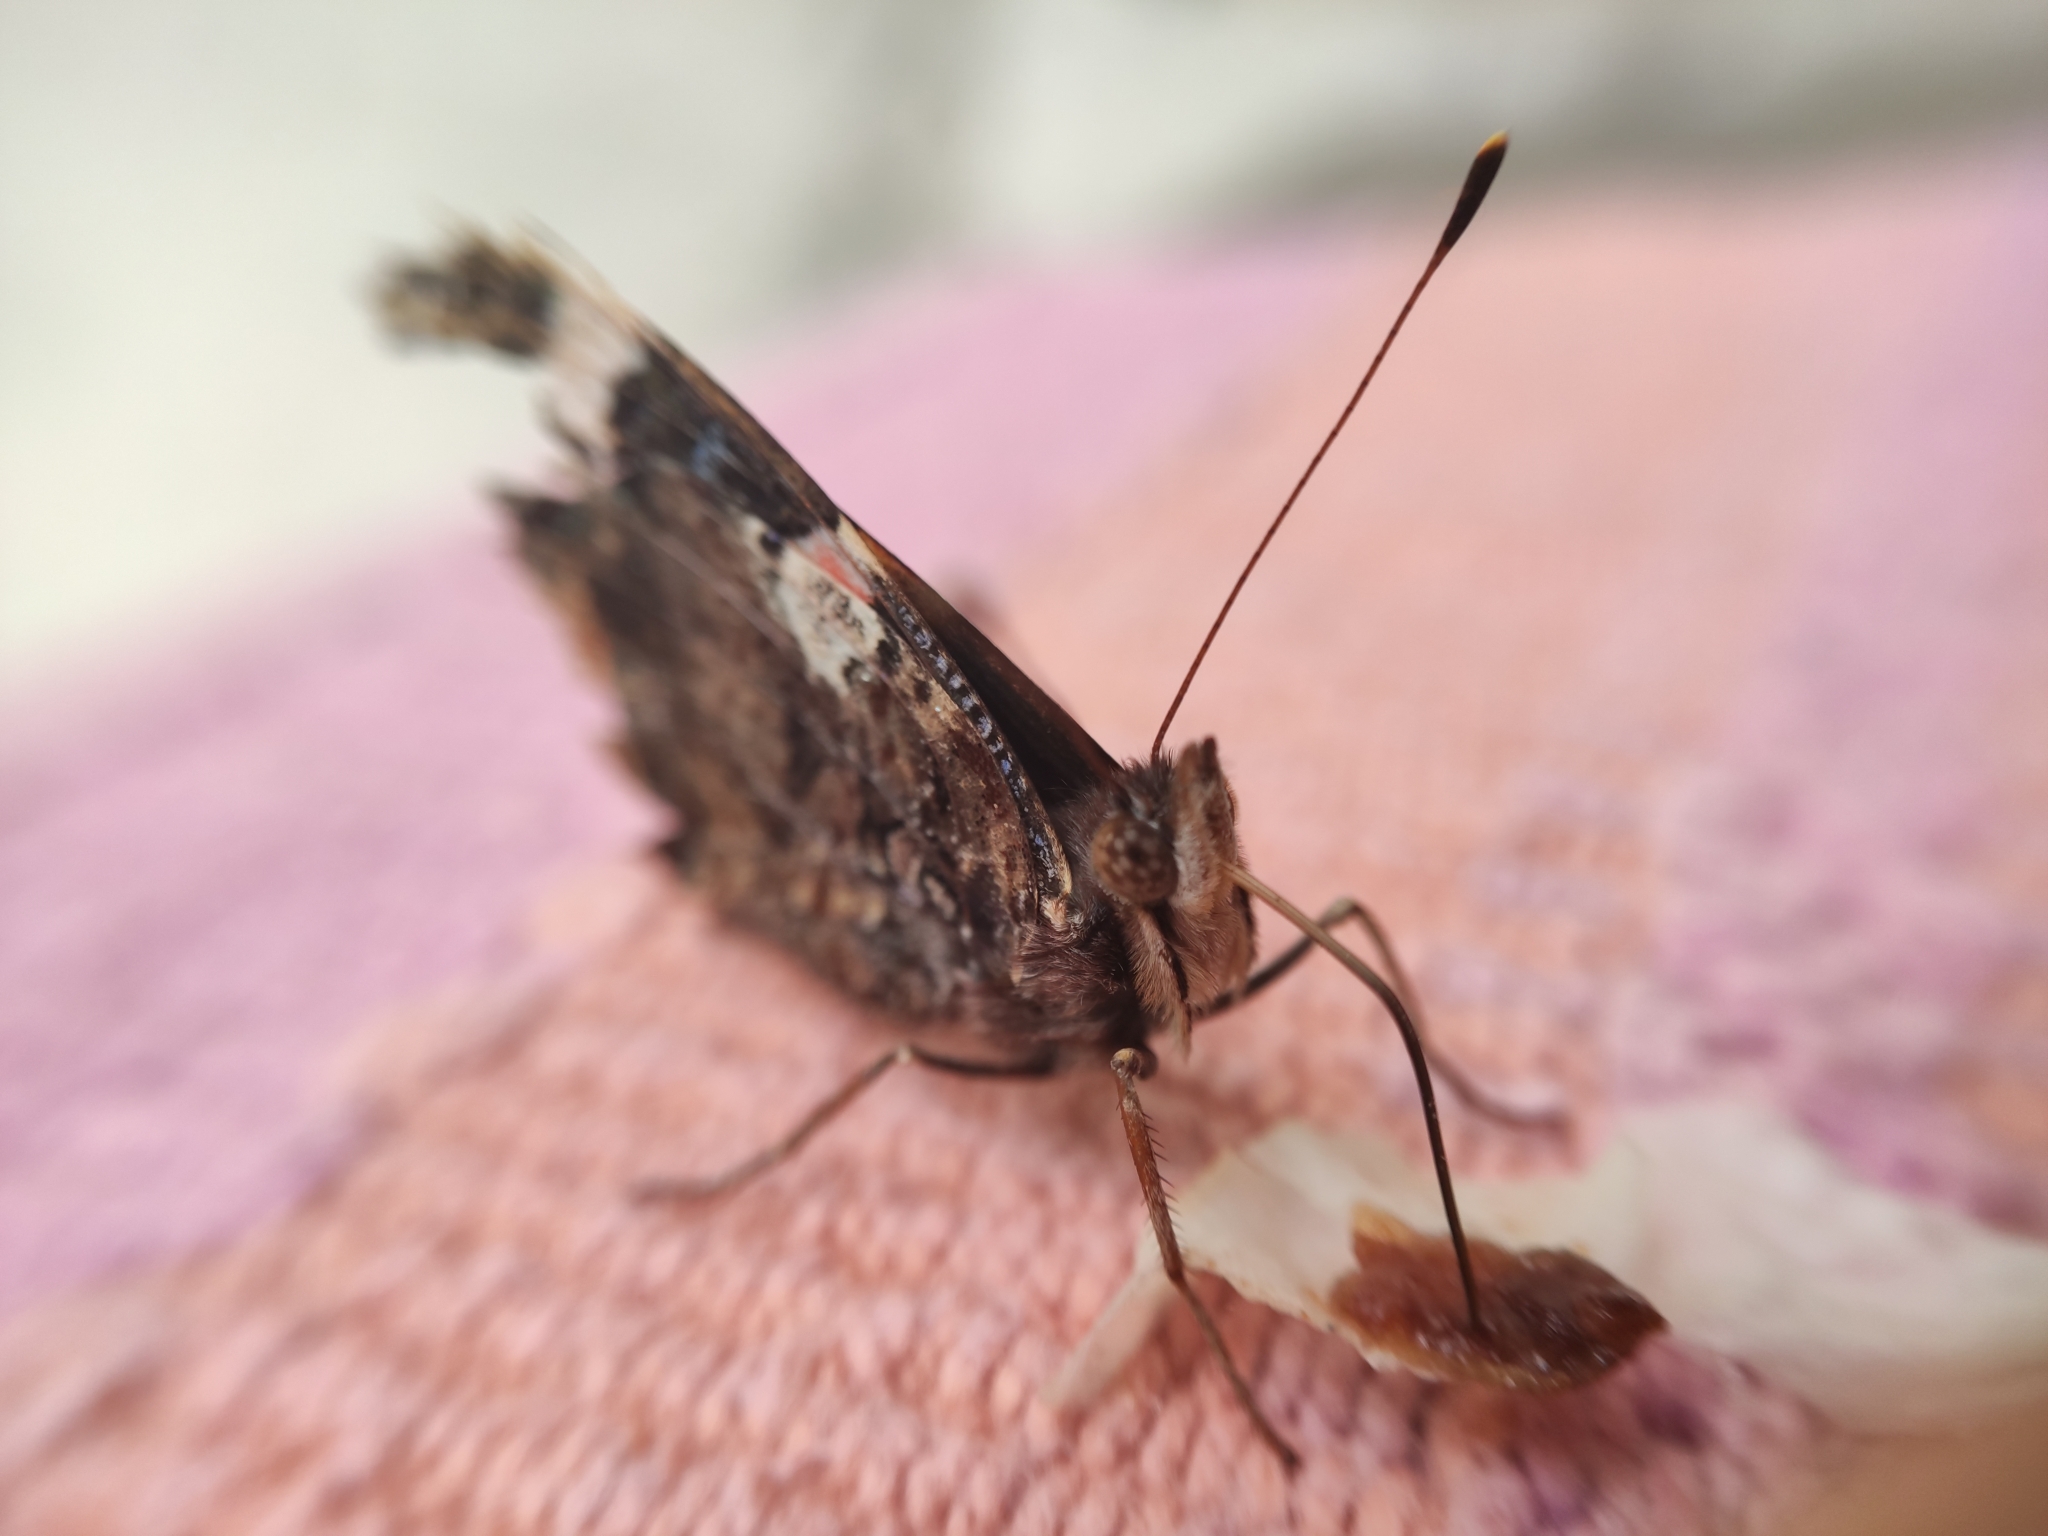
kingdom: Animalia
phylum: Arthropoda
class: Insecta
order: Lepidoptera
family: Nymphalidae
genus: Vanessa
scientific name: Vanessa atalanta
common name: Red admiral
